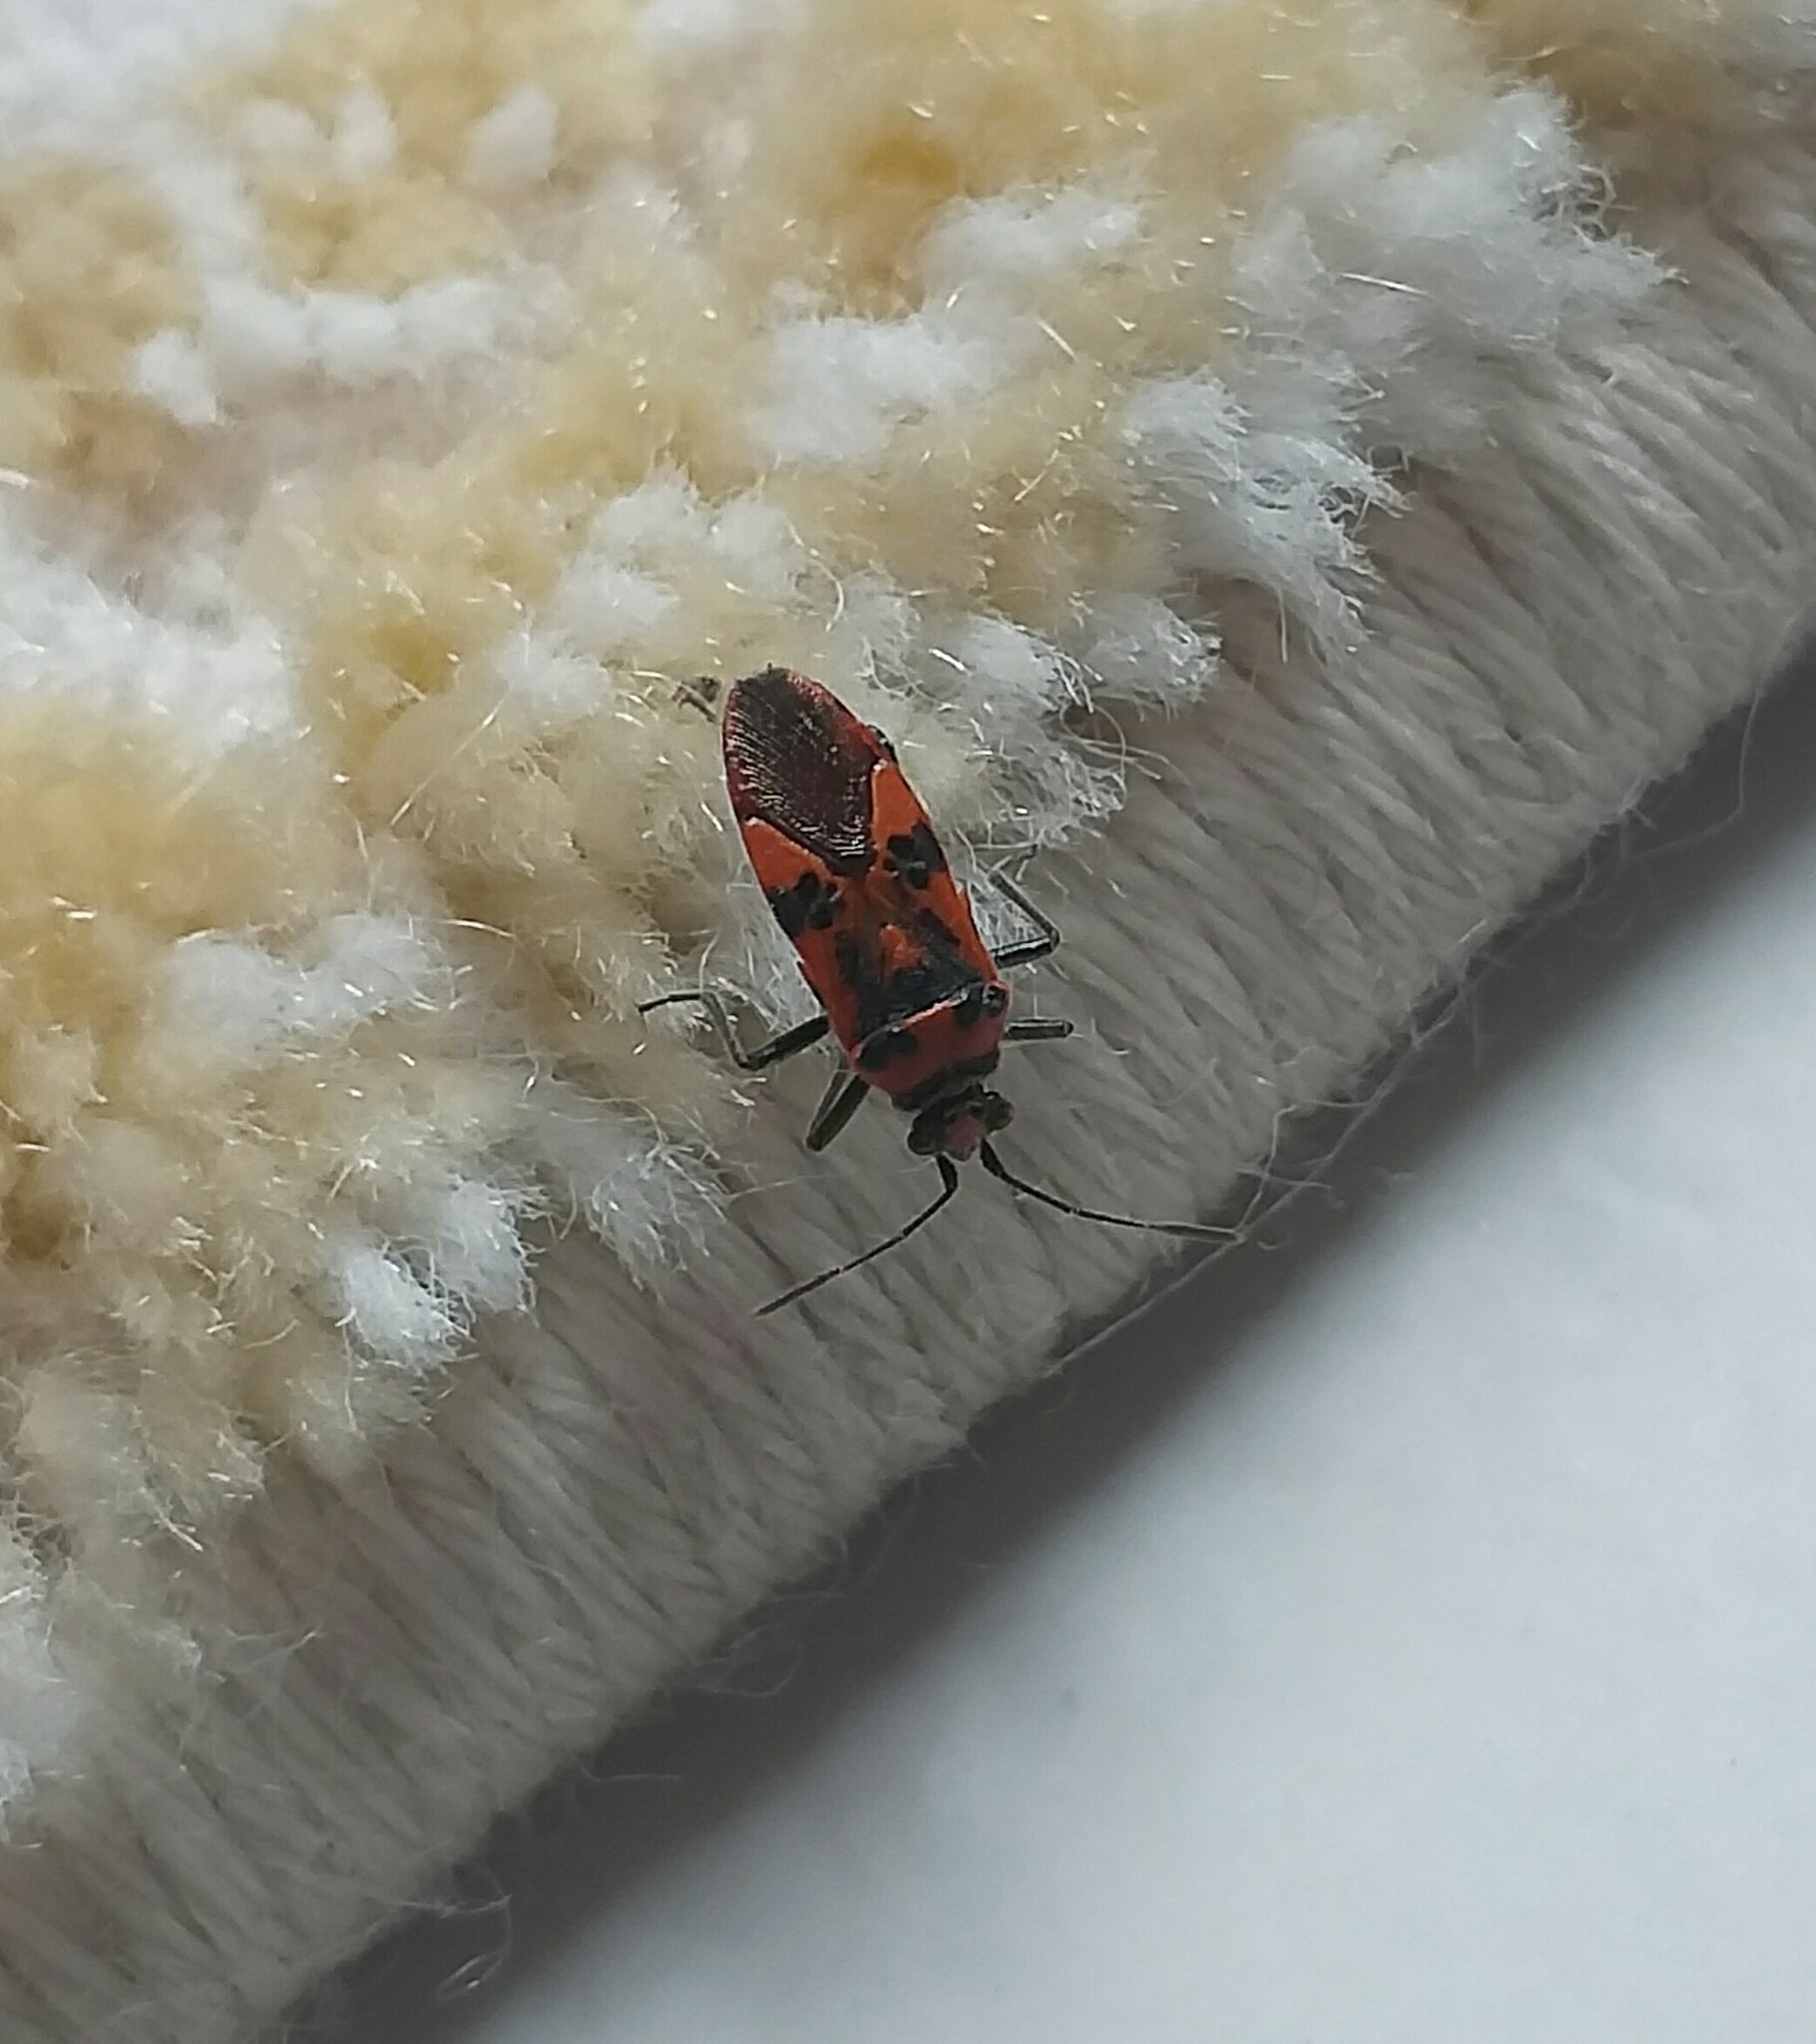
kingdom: Animalia
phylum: Arthropoda
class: Insecta
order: Hemiptera
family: Rhopalidae
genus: Corizus
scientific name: Corizus hyoscyami
